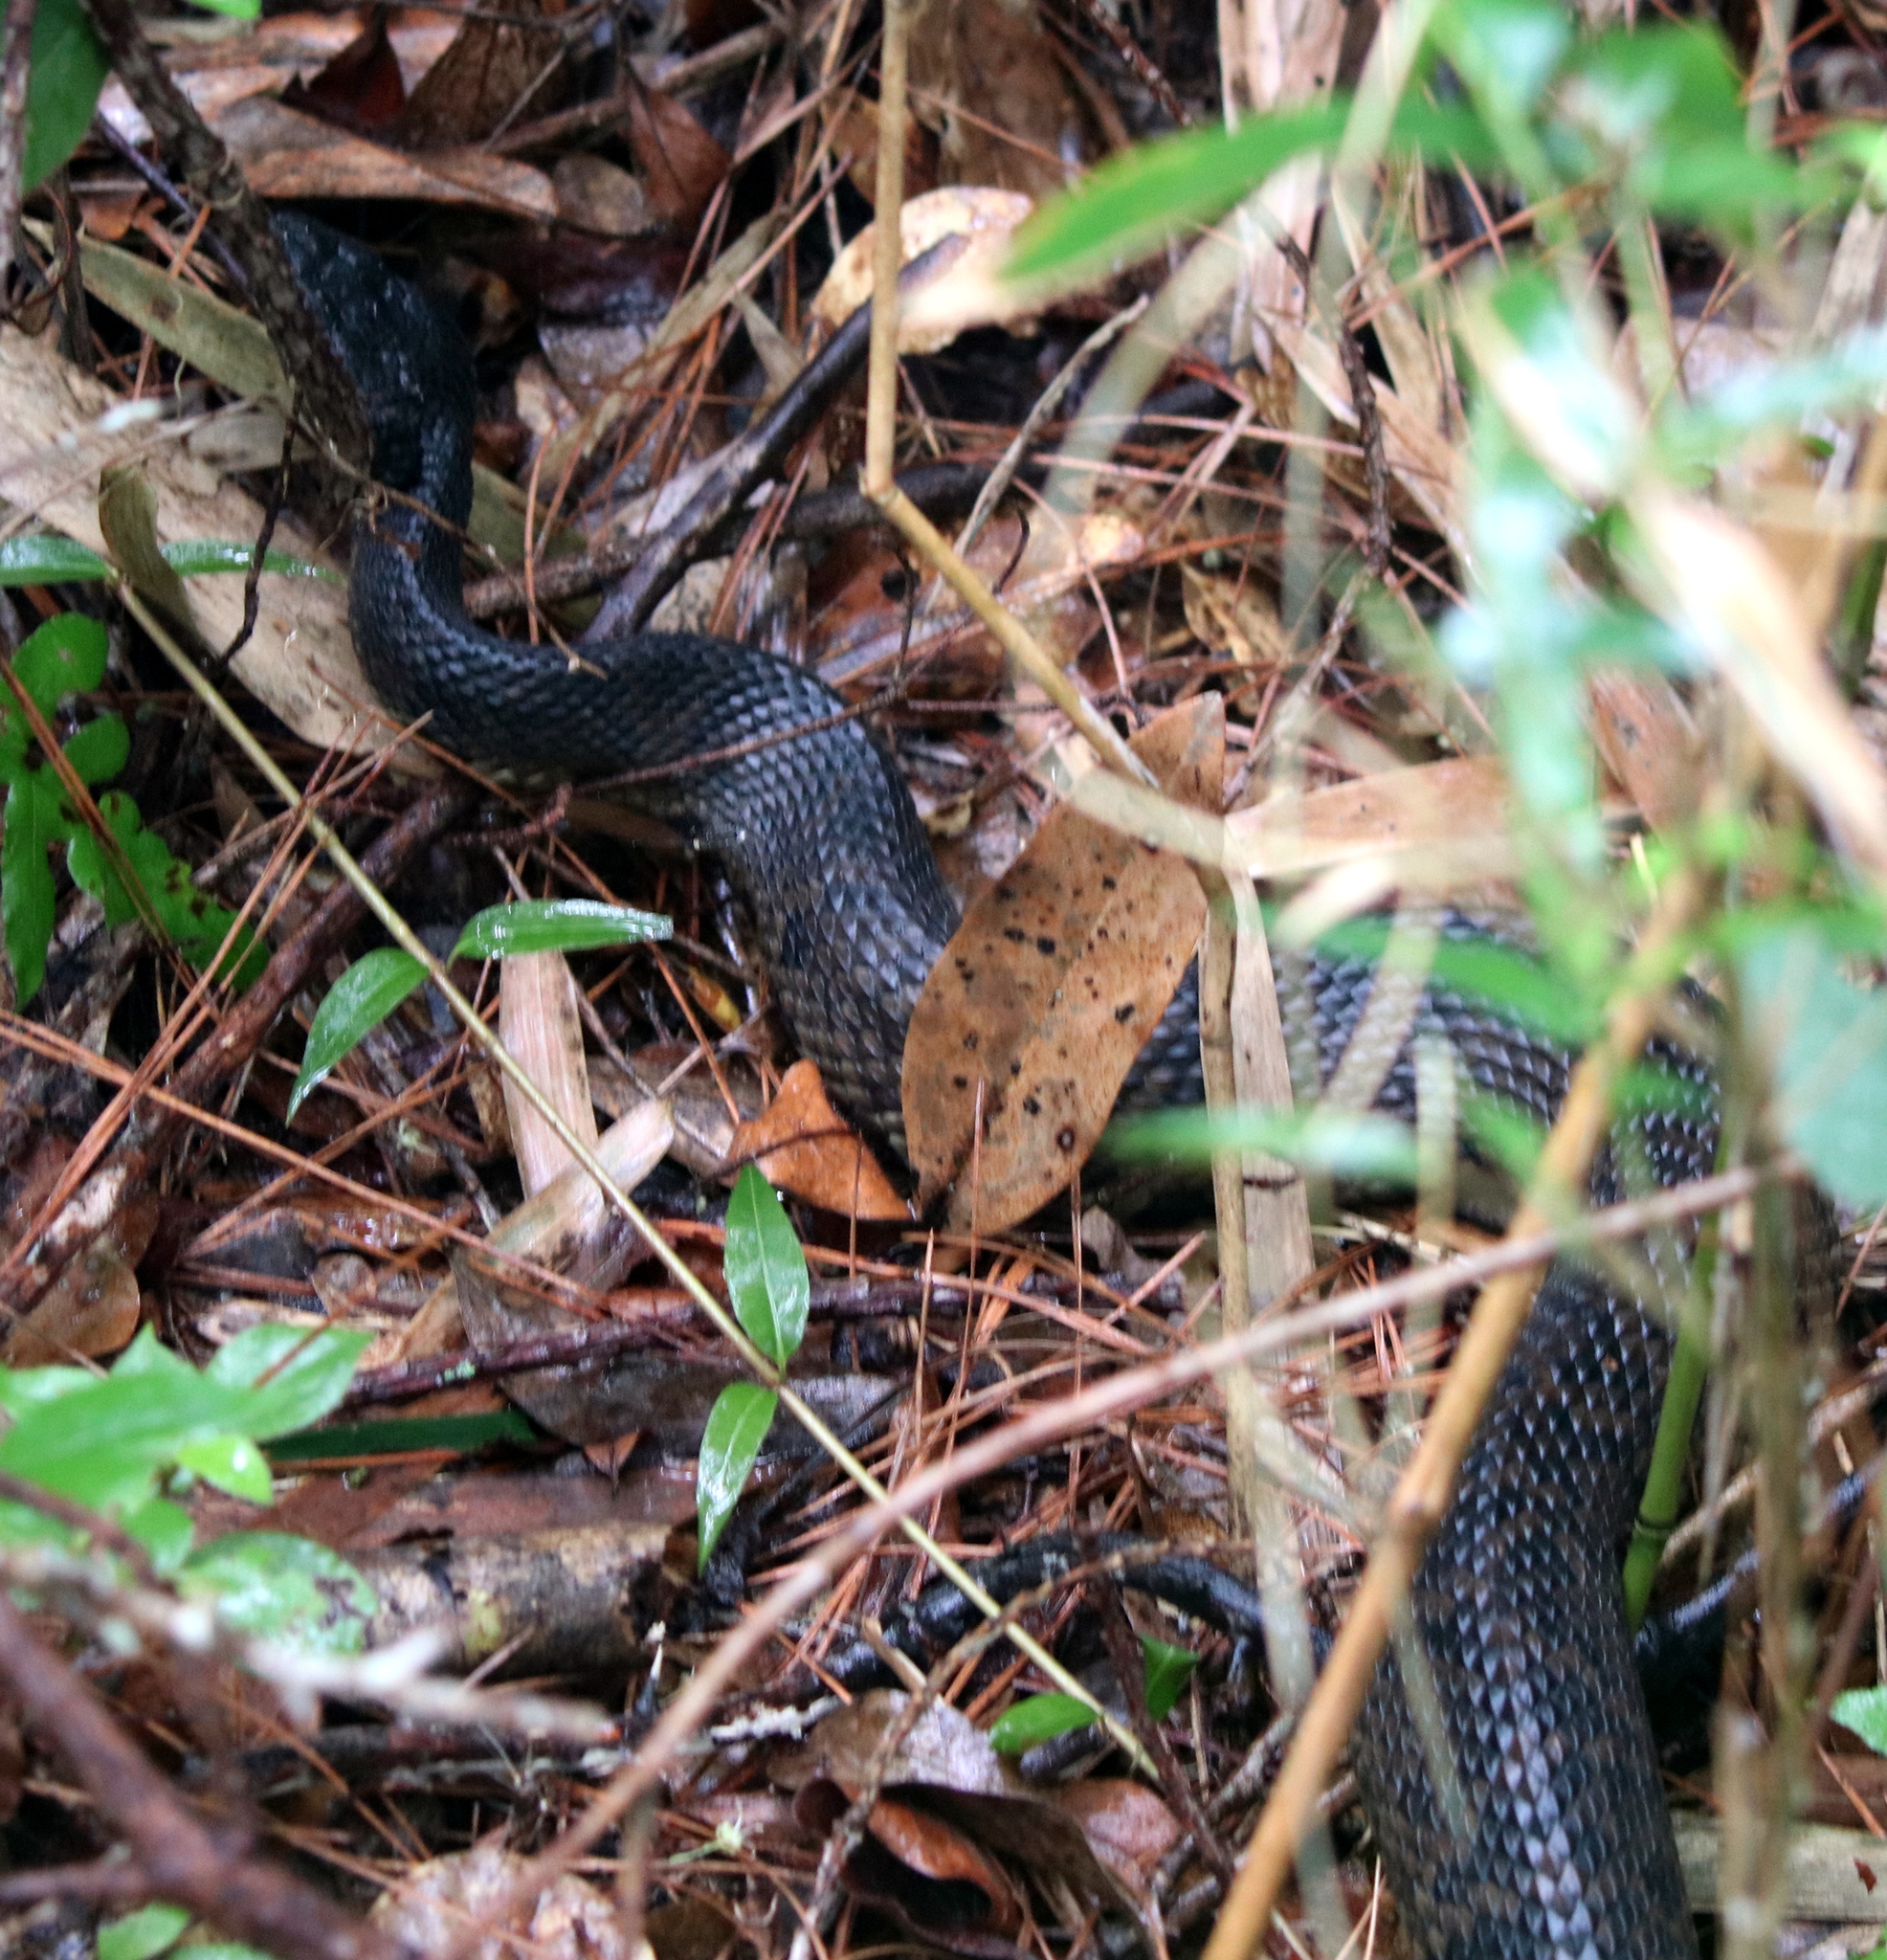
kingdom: Animalia
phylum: Chordata
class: Squamata
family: Viperidae
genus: Agkistrodon
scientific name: Agkistrodon piscivorus
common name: Cottonmouth
